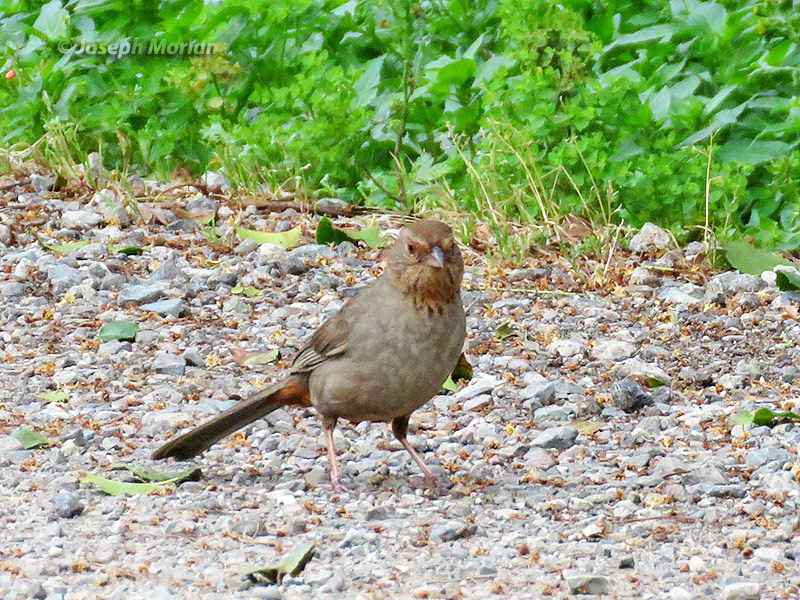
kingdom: Animalia
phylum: Chordata
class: Aves
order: Passeriformes
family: Passerellidae
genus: Melozone
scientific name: Melozone crissalis
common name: California towhee
